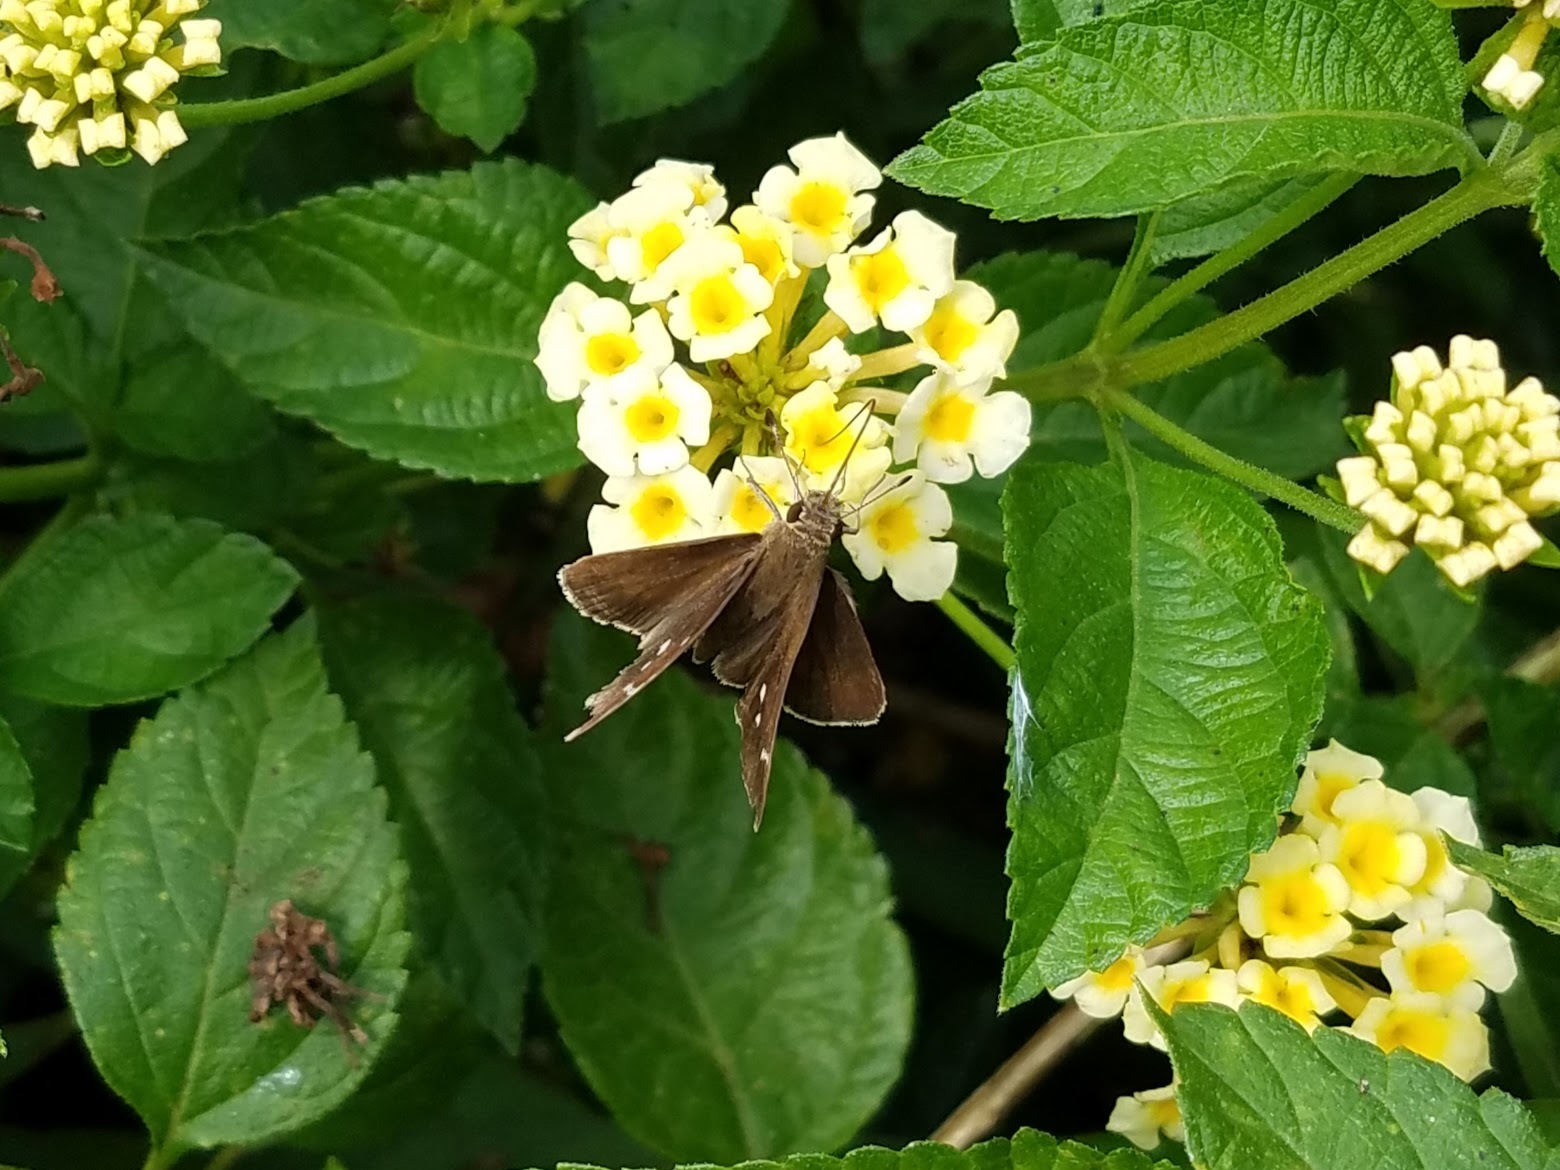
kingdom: Animalia
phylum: Arthropoda
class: Insecta
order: Lepidoptera
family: Hesperiidae
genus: Lerema
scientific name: Lerema accius
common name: Clouded skipper
